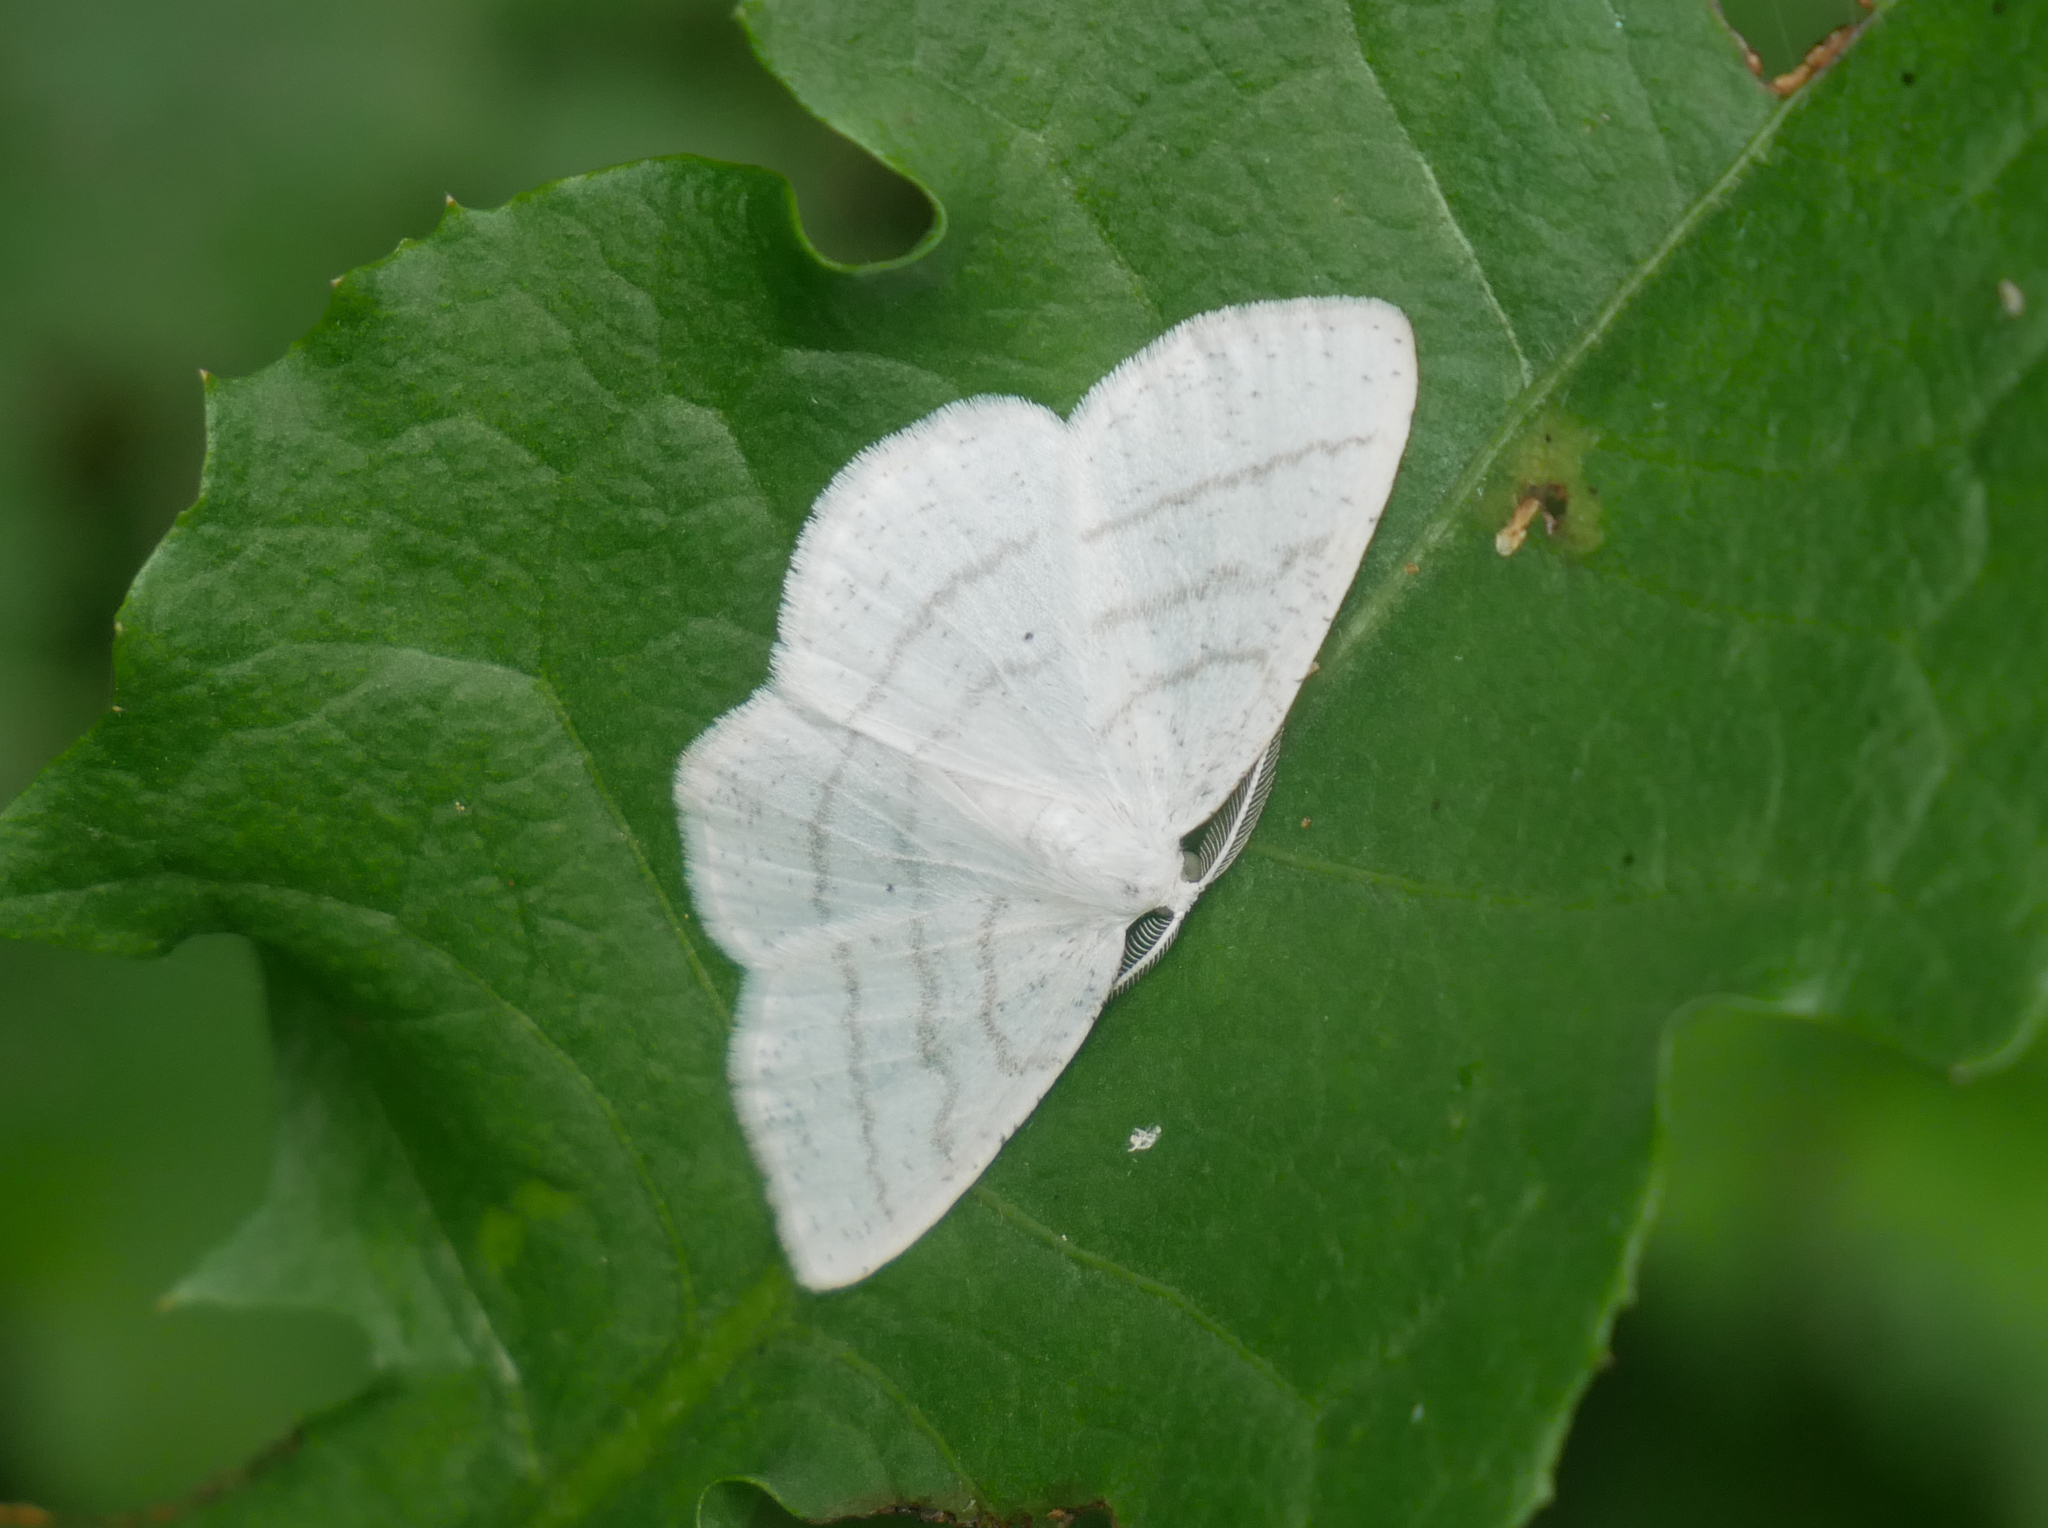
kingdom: Animalia
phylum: Arthropoda
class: Insecta
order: Lepidoptera
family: Geometridae
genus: Cabera
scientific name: Cabera pusaria
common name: Common white wave
